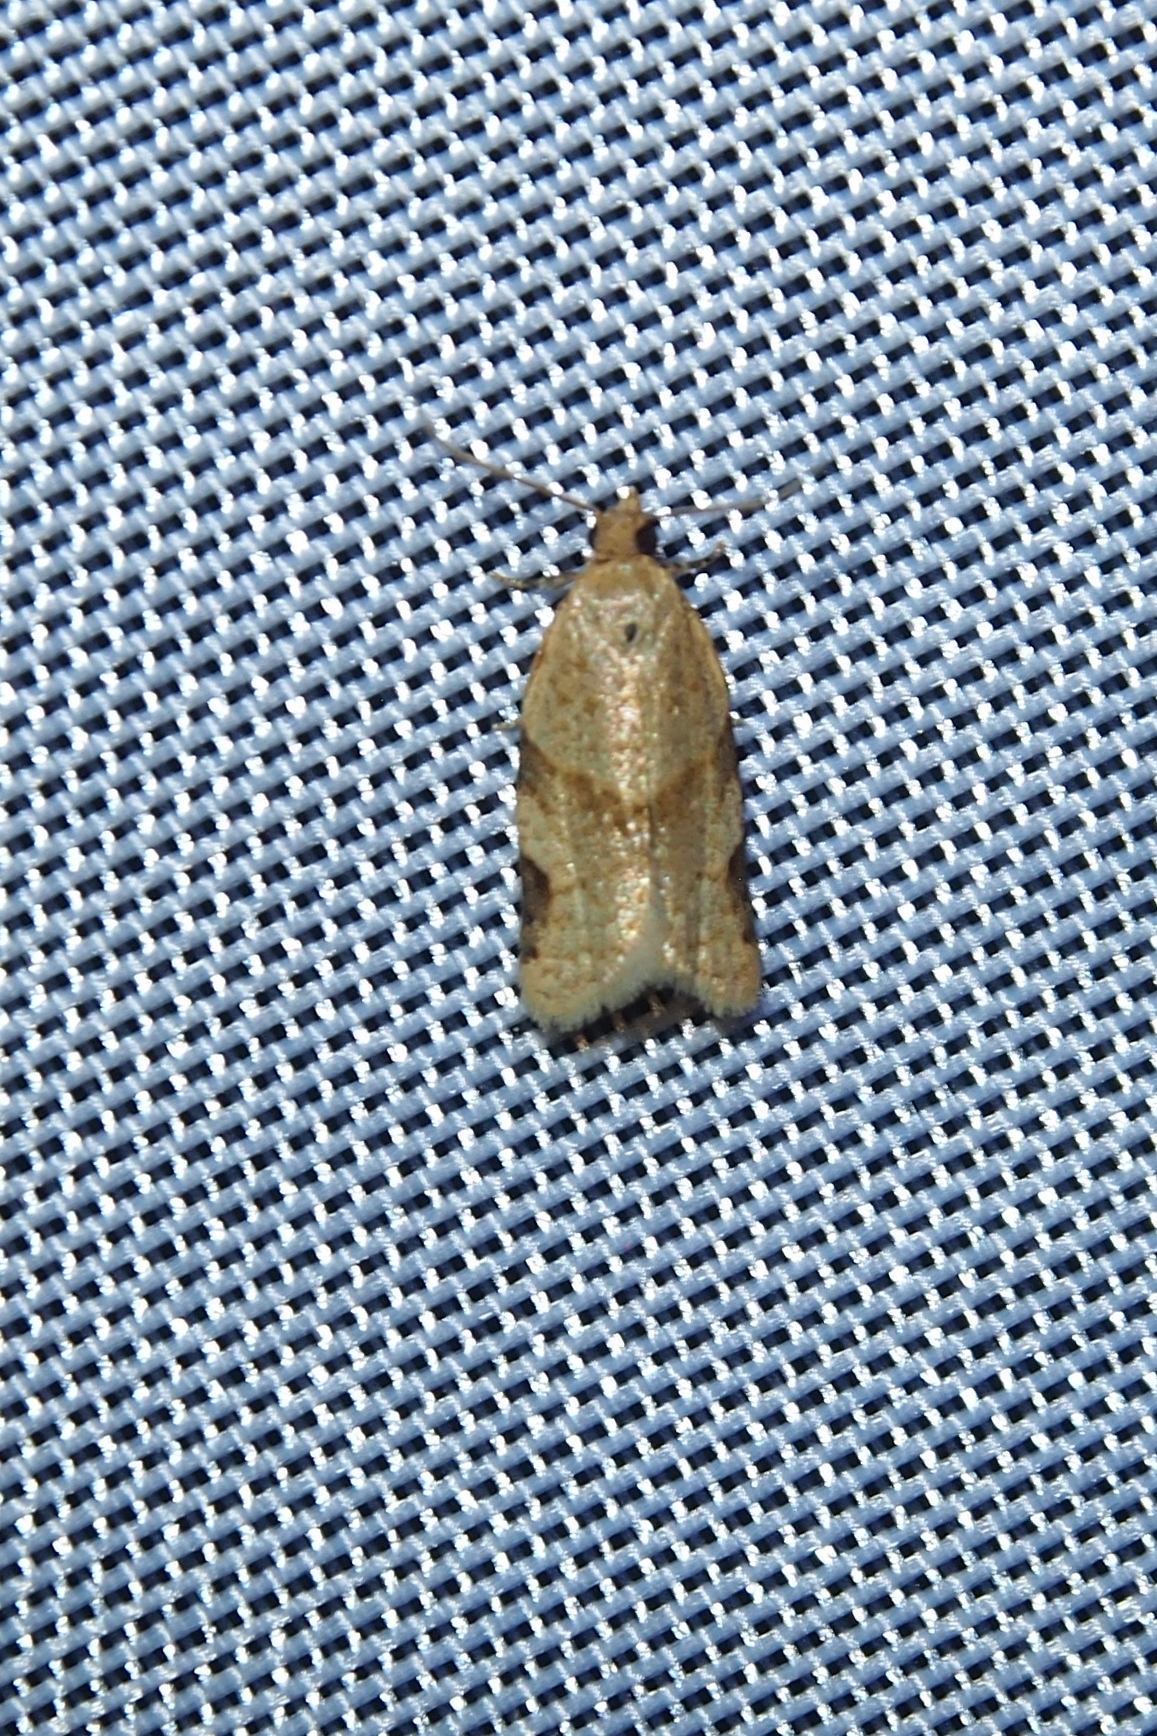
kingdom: Animalia
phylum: Arthropoda
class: Insecta
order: Lepidoptera
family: Tortricidae
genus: Clepsis
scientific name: Clepsis peritana
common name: Garden tortrix
